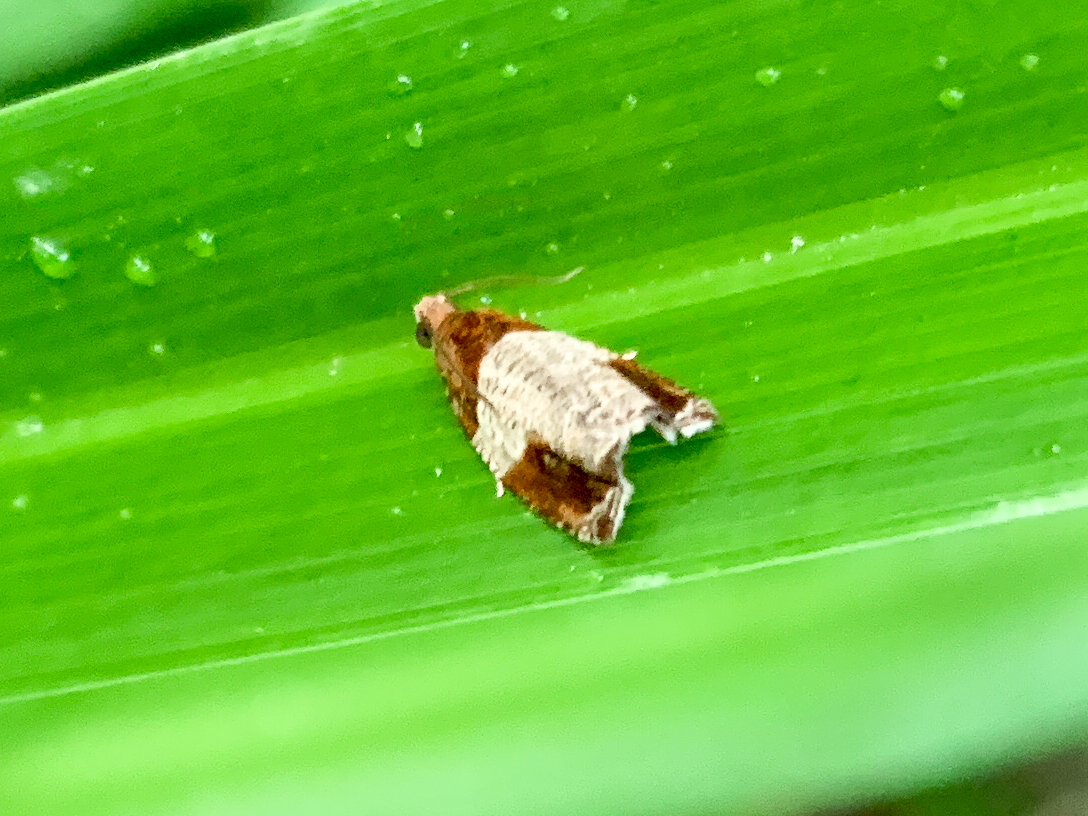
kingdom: Animalia
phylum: Arthropoda
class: Insecta
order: Lepidoptera
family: Tortricidae
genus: Olethreutes
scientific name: Olethreutes ferriferana
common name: Hydrangea leaftier moth
